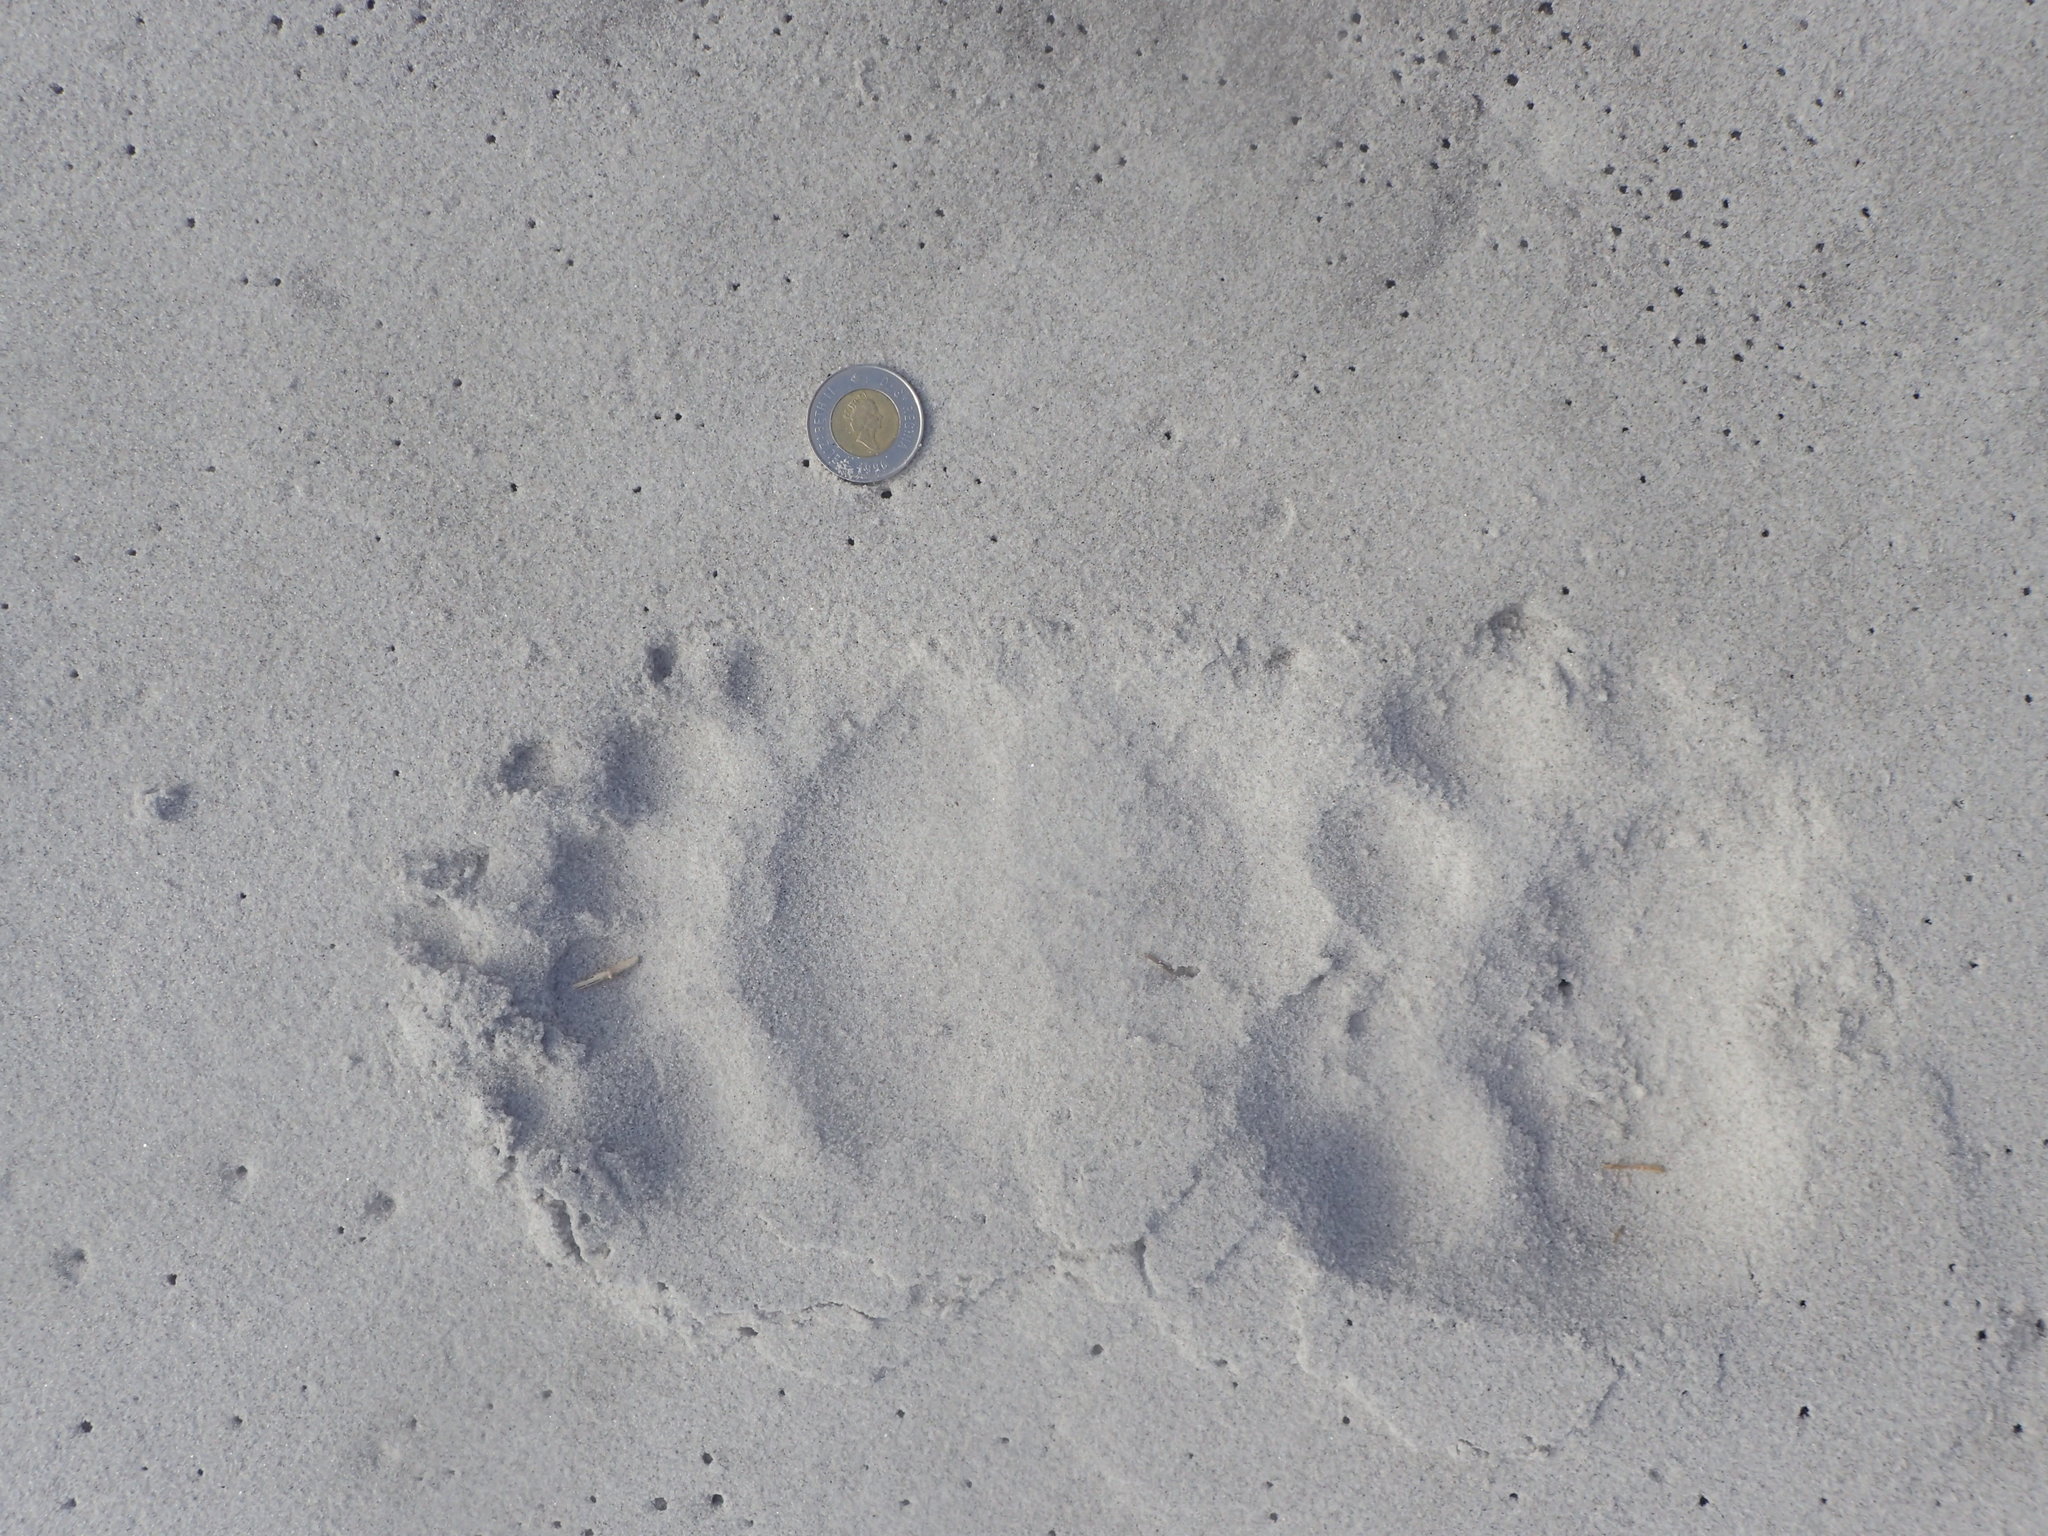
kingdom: Animalia
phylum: Chordata
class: Mammalia
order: Carnivora
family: Ursidae
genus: Ursus
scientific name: Ursus americanus
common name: American black bear
